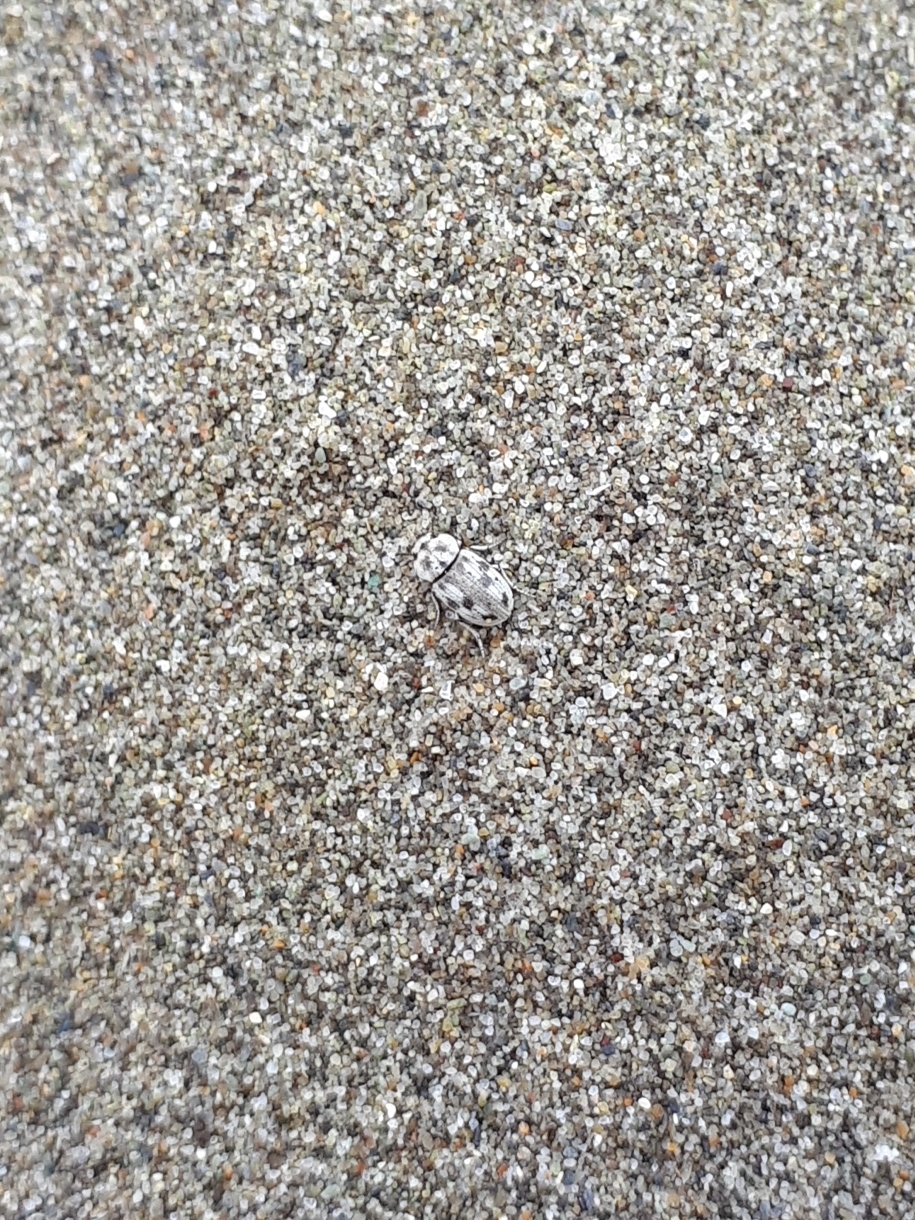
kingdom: Animalia
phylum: Arthropoda
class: Insecta
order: Coleoptera
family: Tenebrionidae
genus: Actizeta
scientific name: Actizeta
